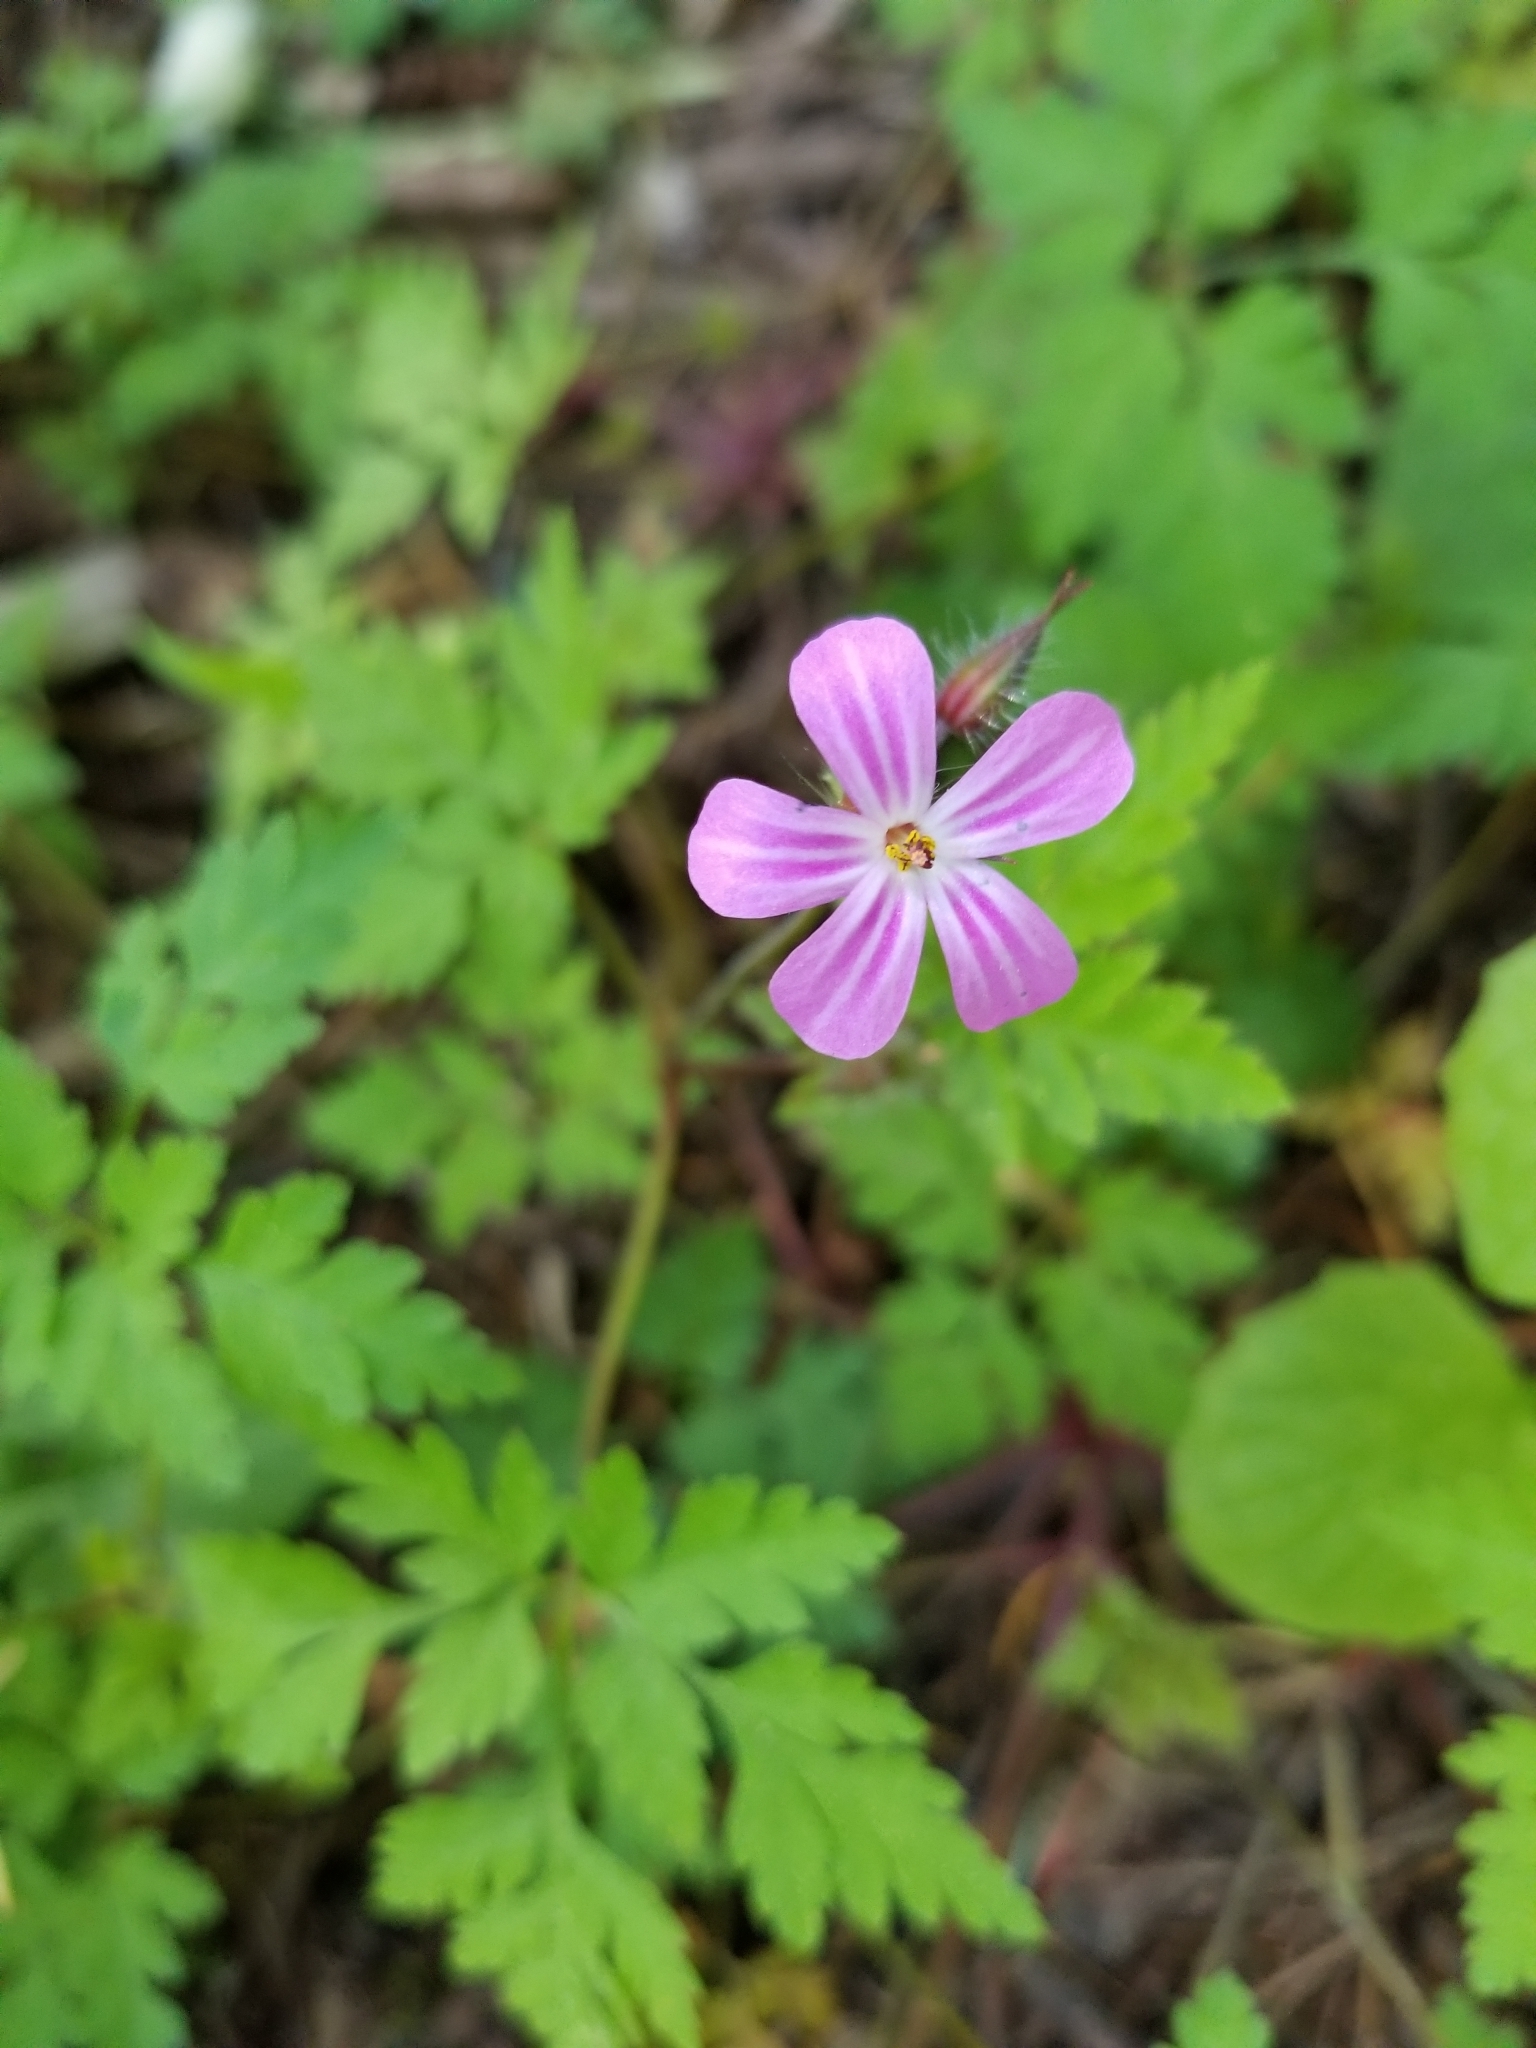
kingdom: Plantae
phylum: Tracheophyta
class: Magnoliopsida
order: Geraniales
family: Geraniaceae
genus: Geranium
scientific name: Geranium robertianum
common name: Herb-robert
